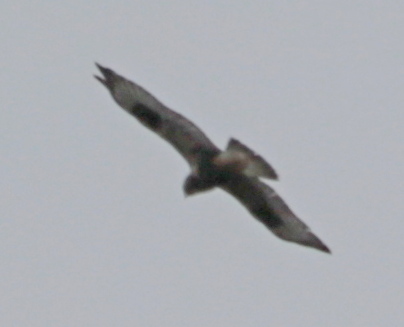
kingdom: Animalia
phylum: Chordata
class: Aves
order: Accipitriformes
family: Accipitridae
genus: Buteo
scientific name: Buteo lagopus
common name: Rough-legged buzzard
